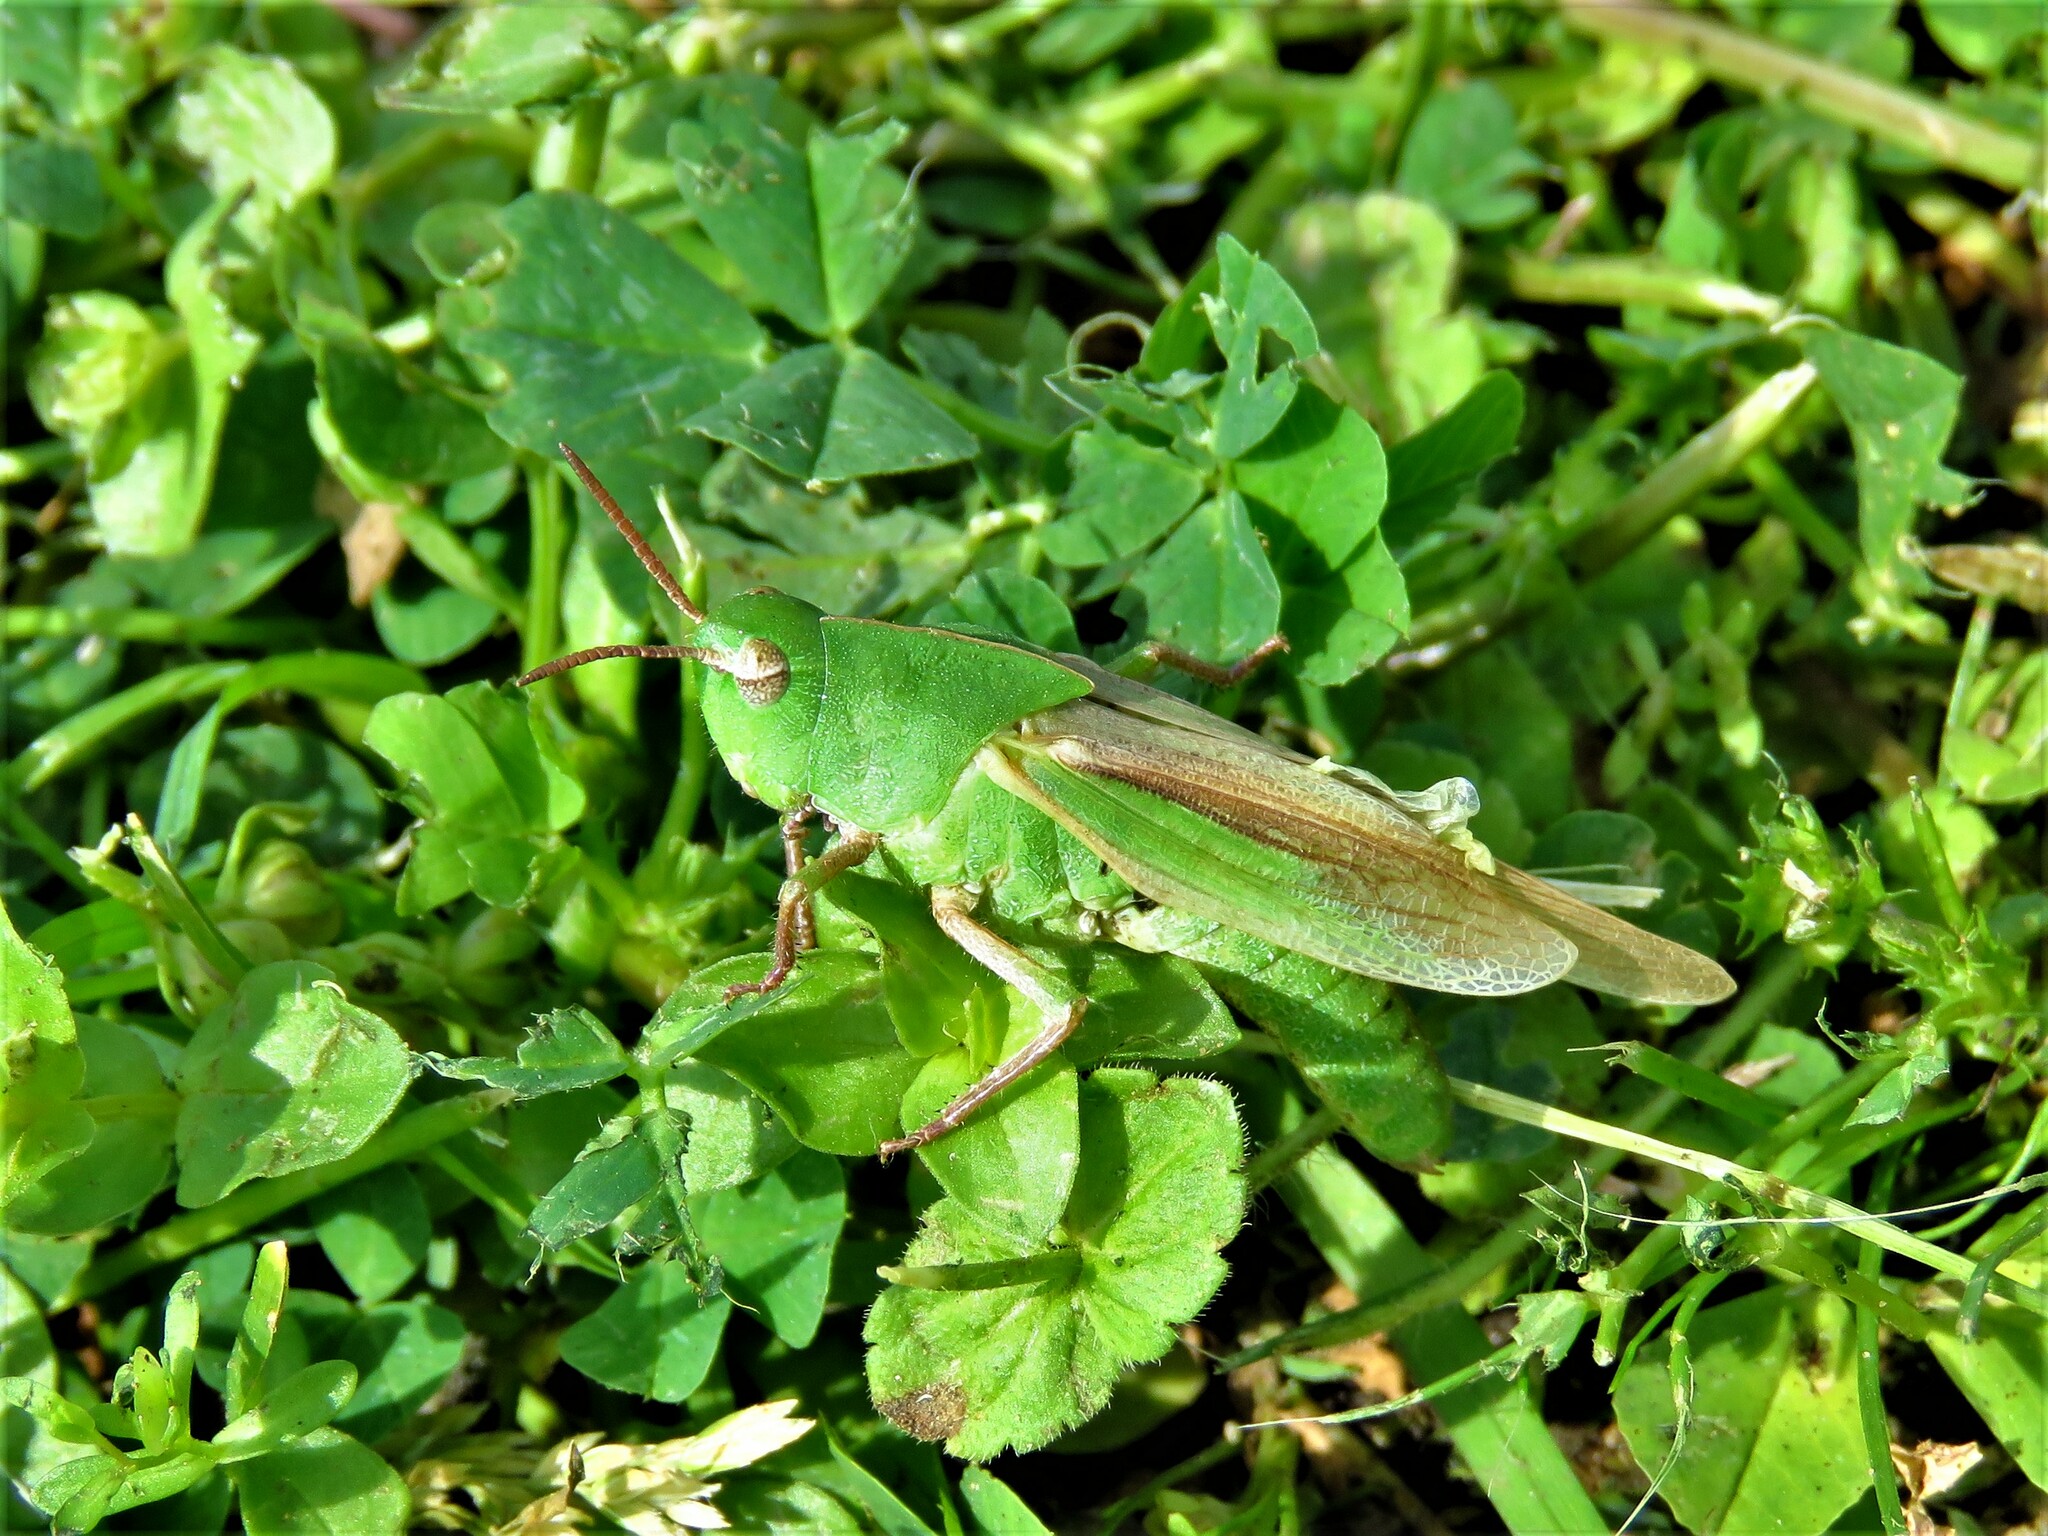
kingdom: Animalia
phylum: Arthropoda
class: Insecta
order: Orthoptera
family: Acrididae
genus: Chortophaga
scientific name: Chortophaga viridifasciata
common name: Green-striped grasshopper
